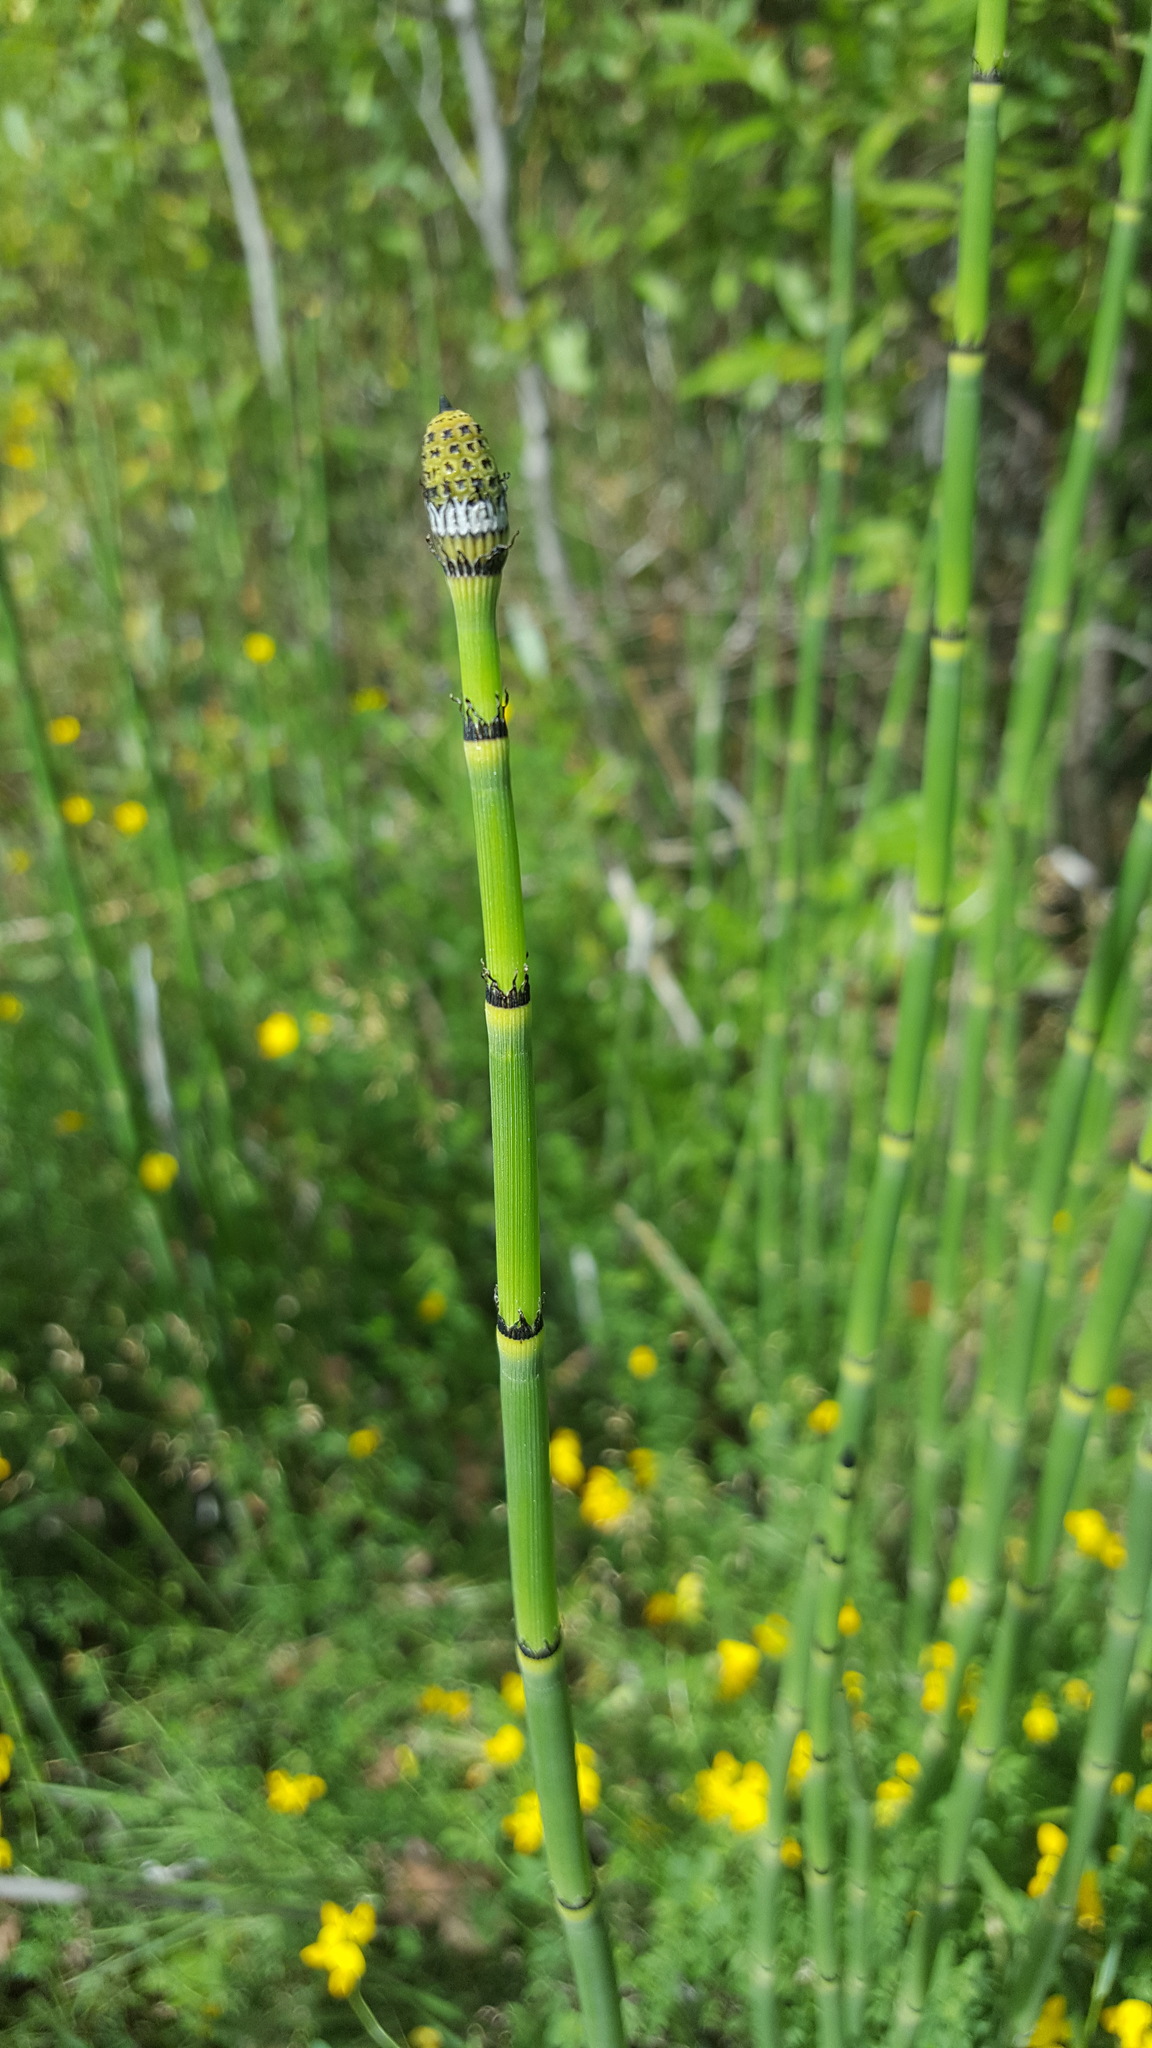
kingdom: Plantae
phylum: Tracheophyta
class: Polypodiopsida
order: Equisetales
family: Equisetaceae
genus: Equisetum
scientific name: Equisetum praealtum
